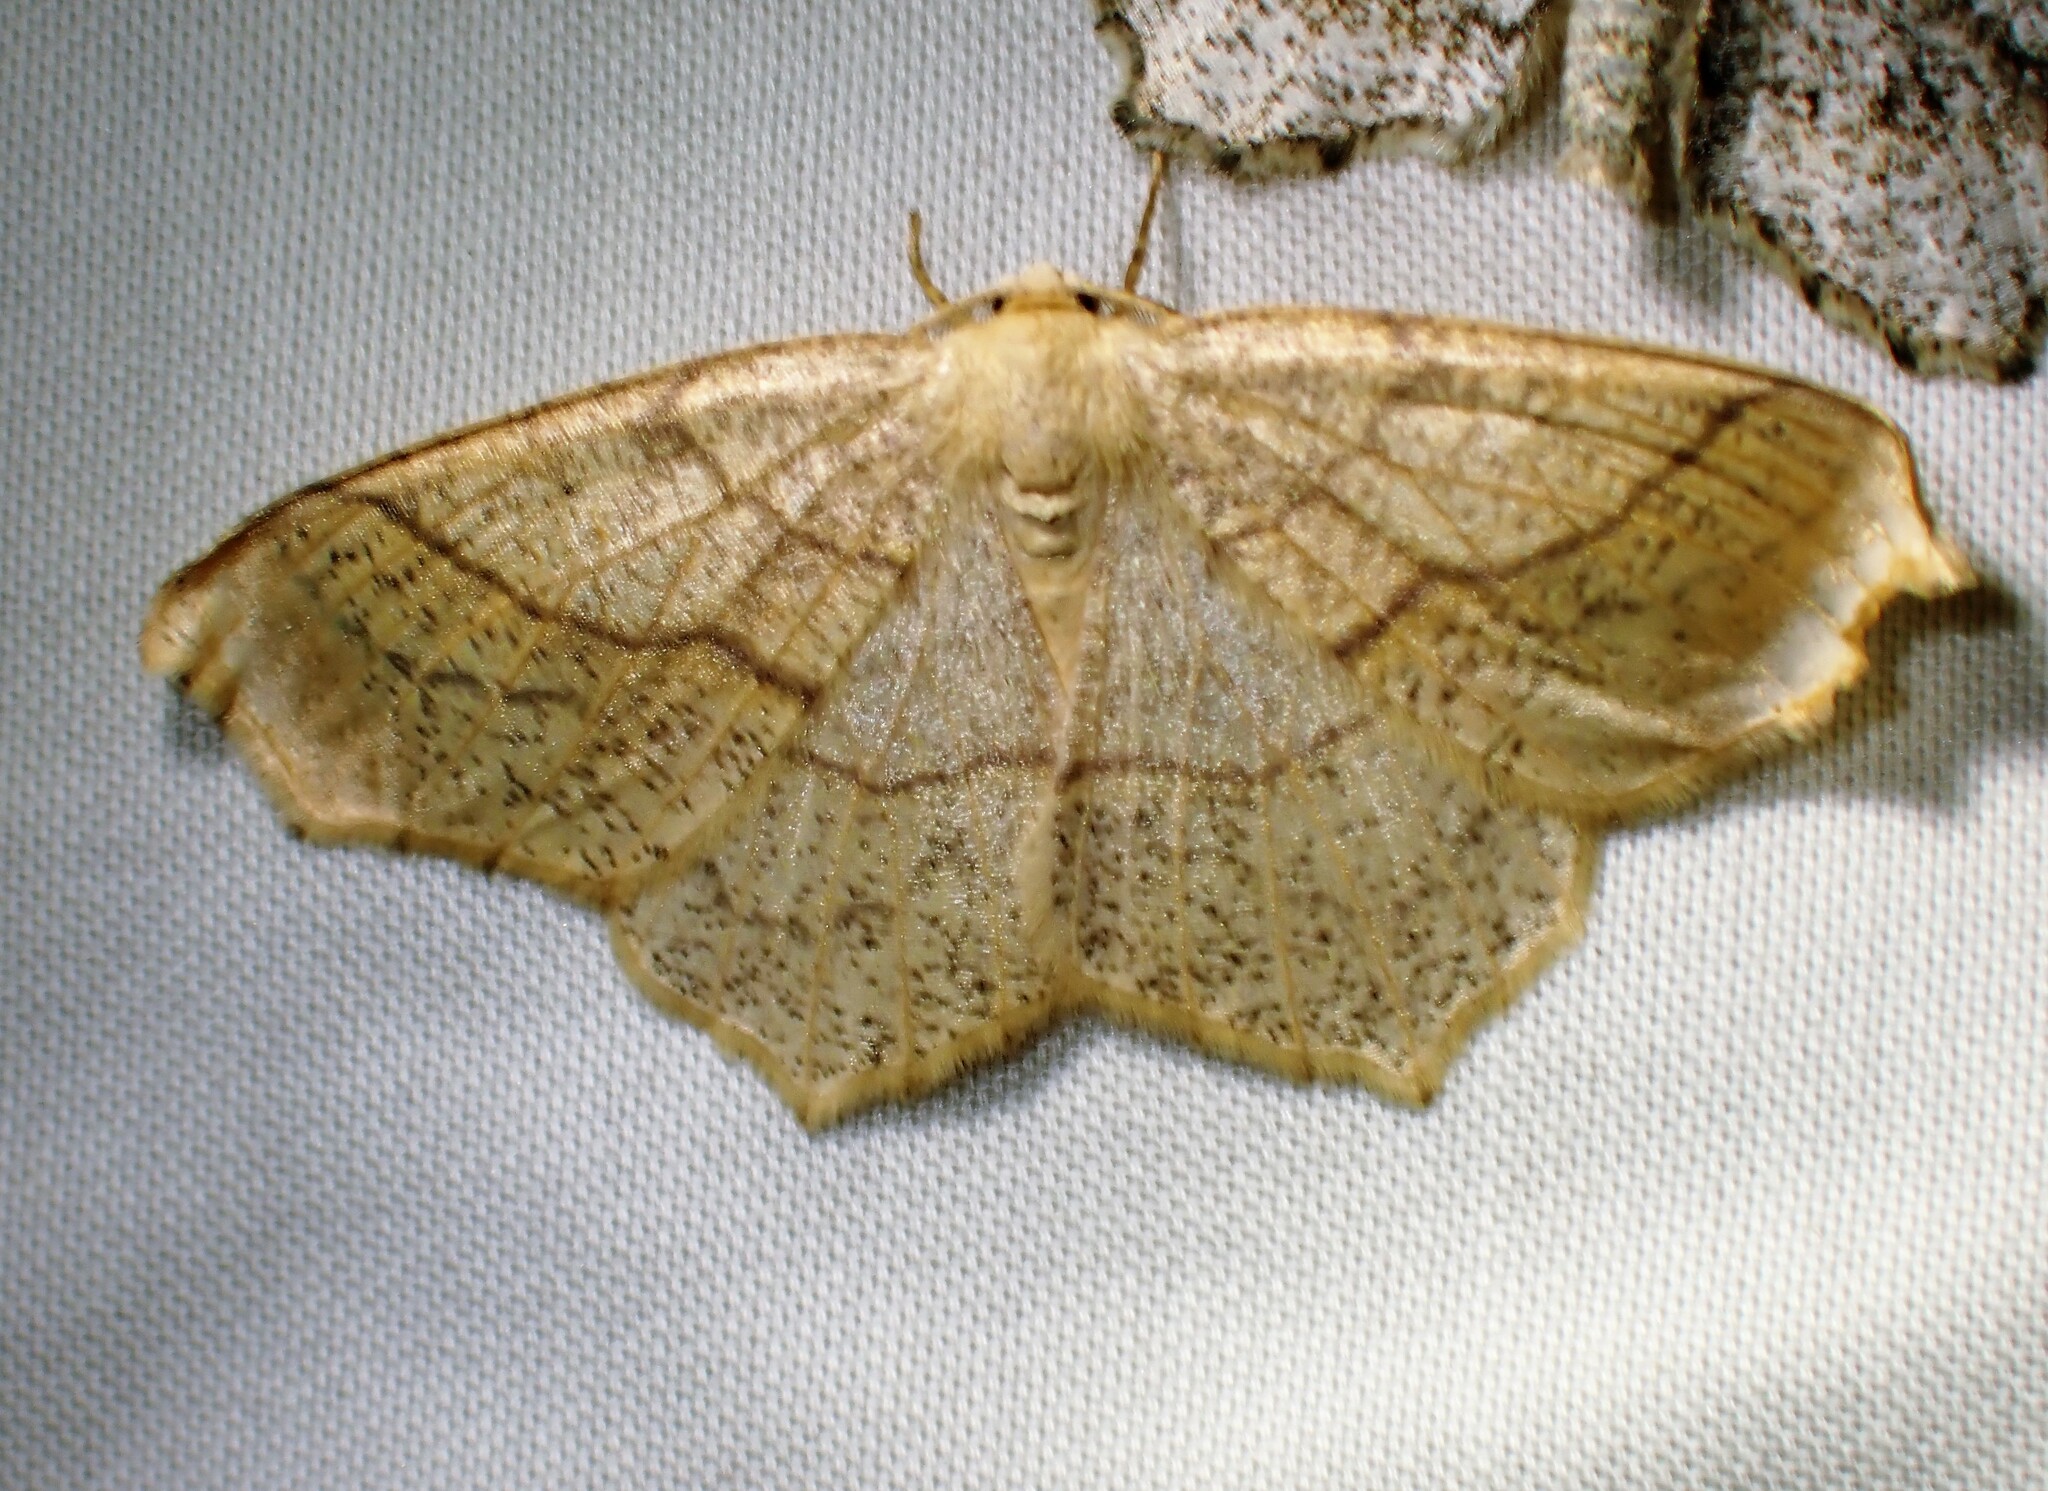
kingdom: Animalia
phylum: Arthropoda
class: Insecta
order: Lepidoptera
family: Geometridae
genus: Besma
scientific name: Besma quercivoraria
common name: Oak besma
